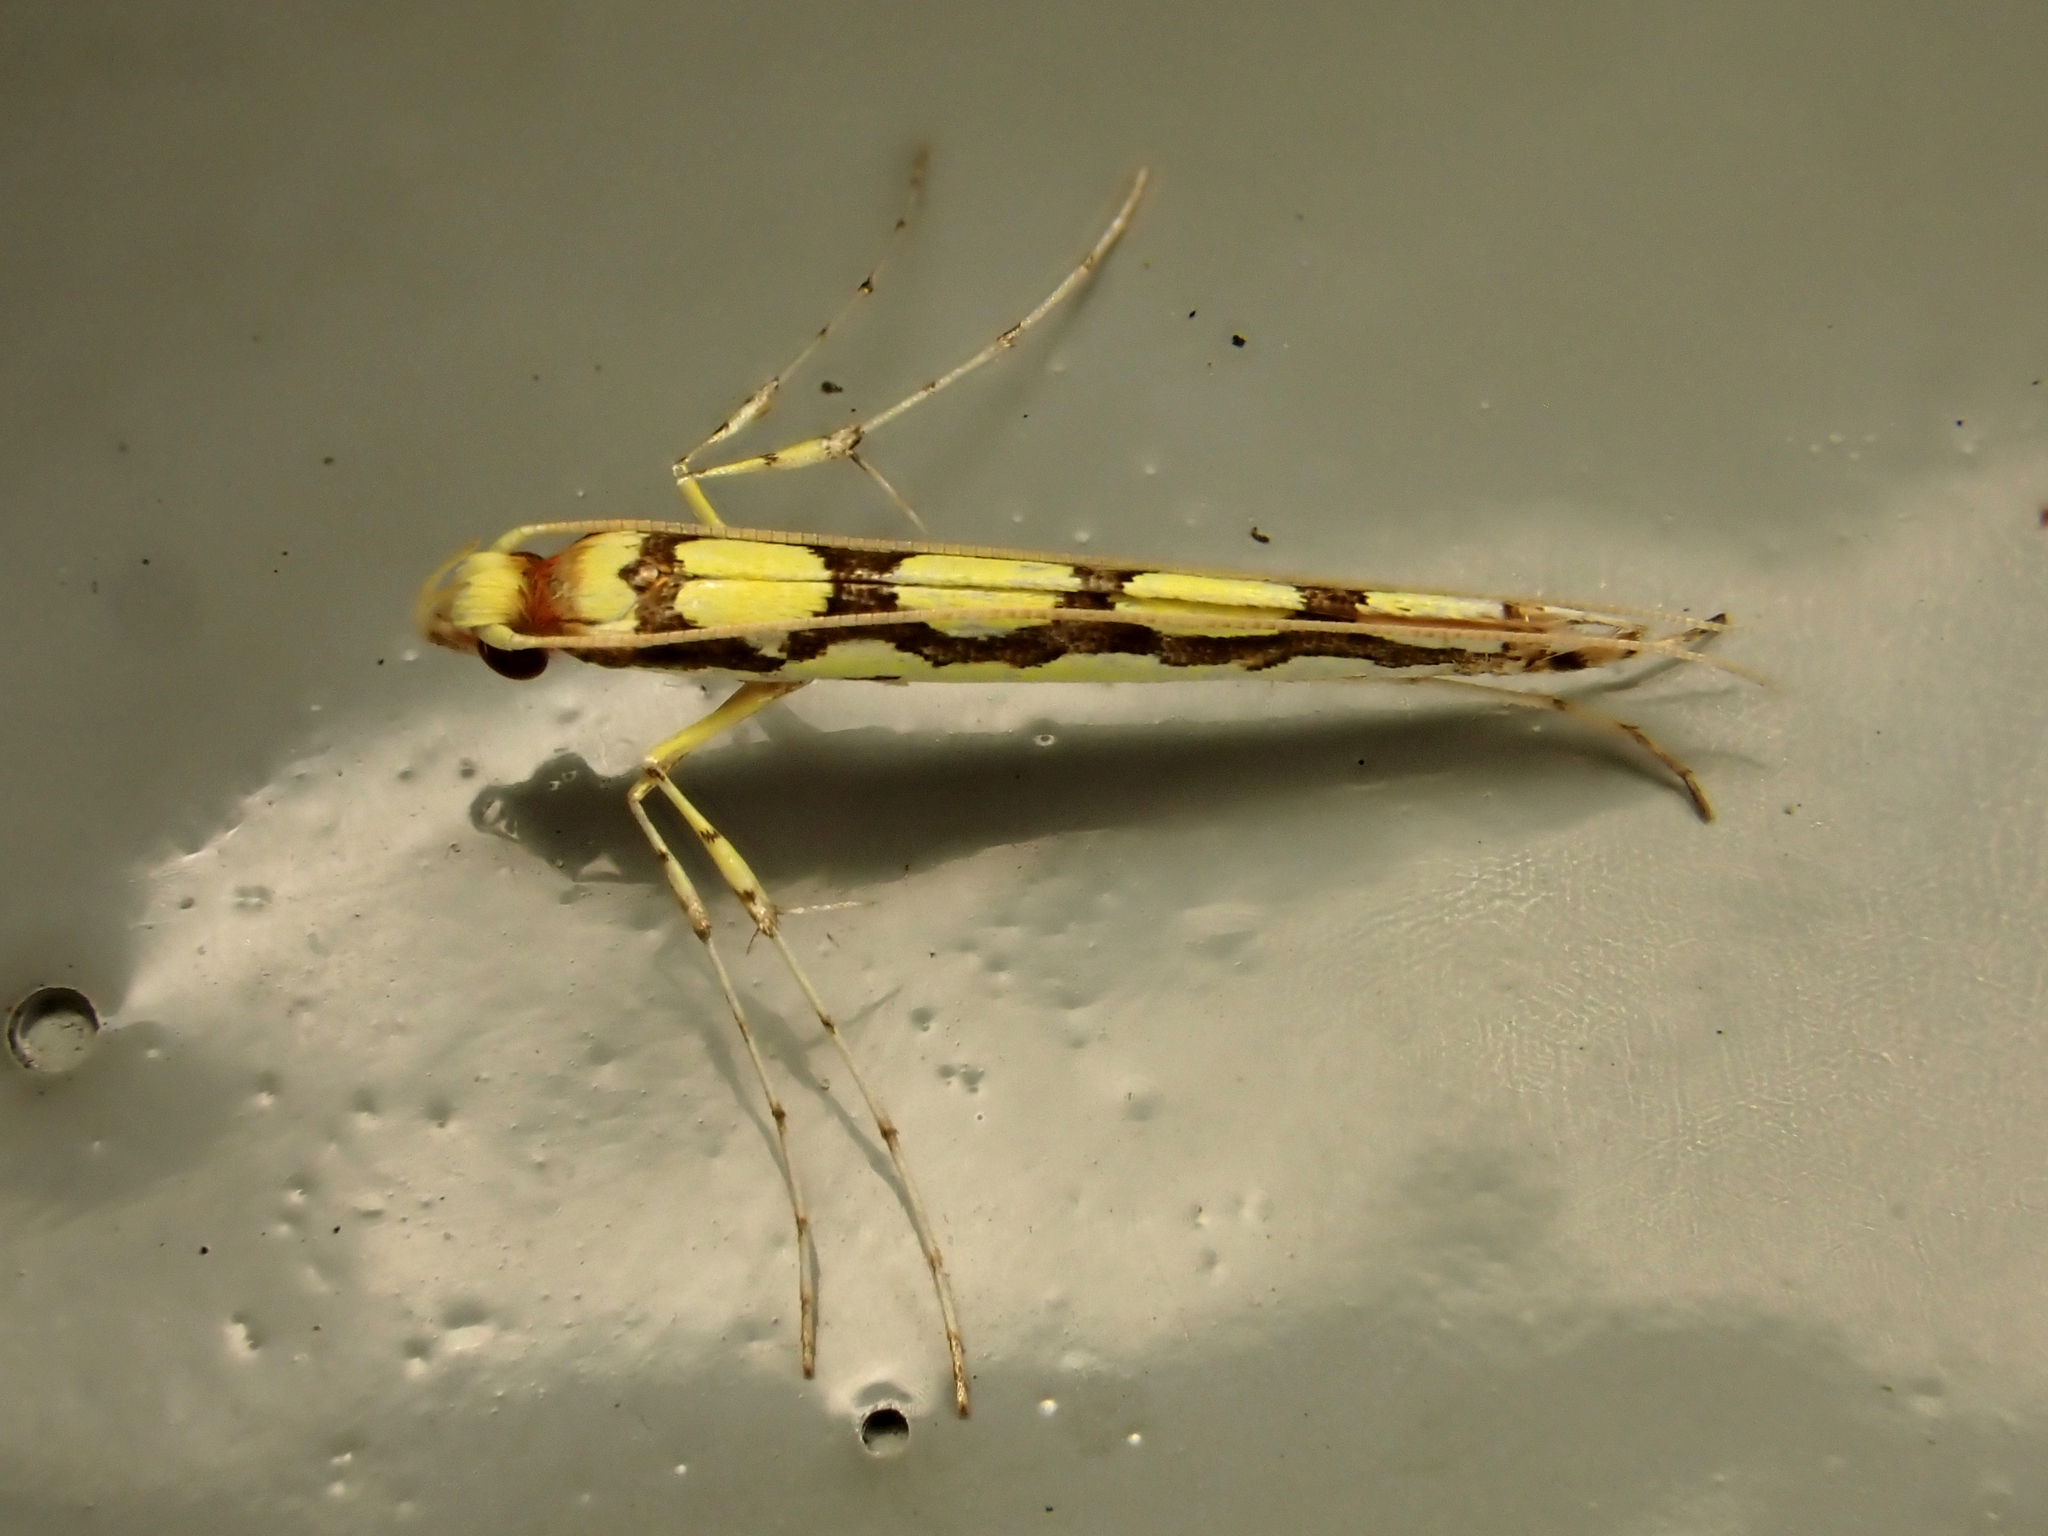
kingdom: Animalia
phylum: Arthropoda
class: Insecta
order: Lepidoptera
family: Gracillariidae
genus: Macarostola
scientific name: Macarostola miniella
